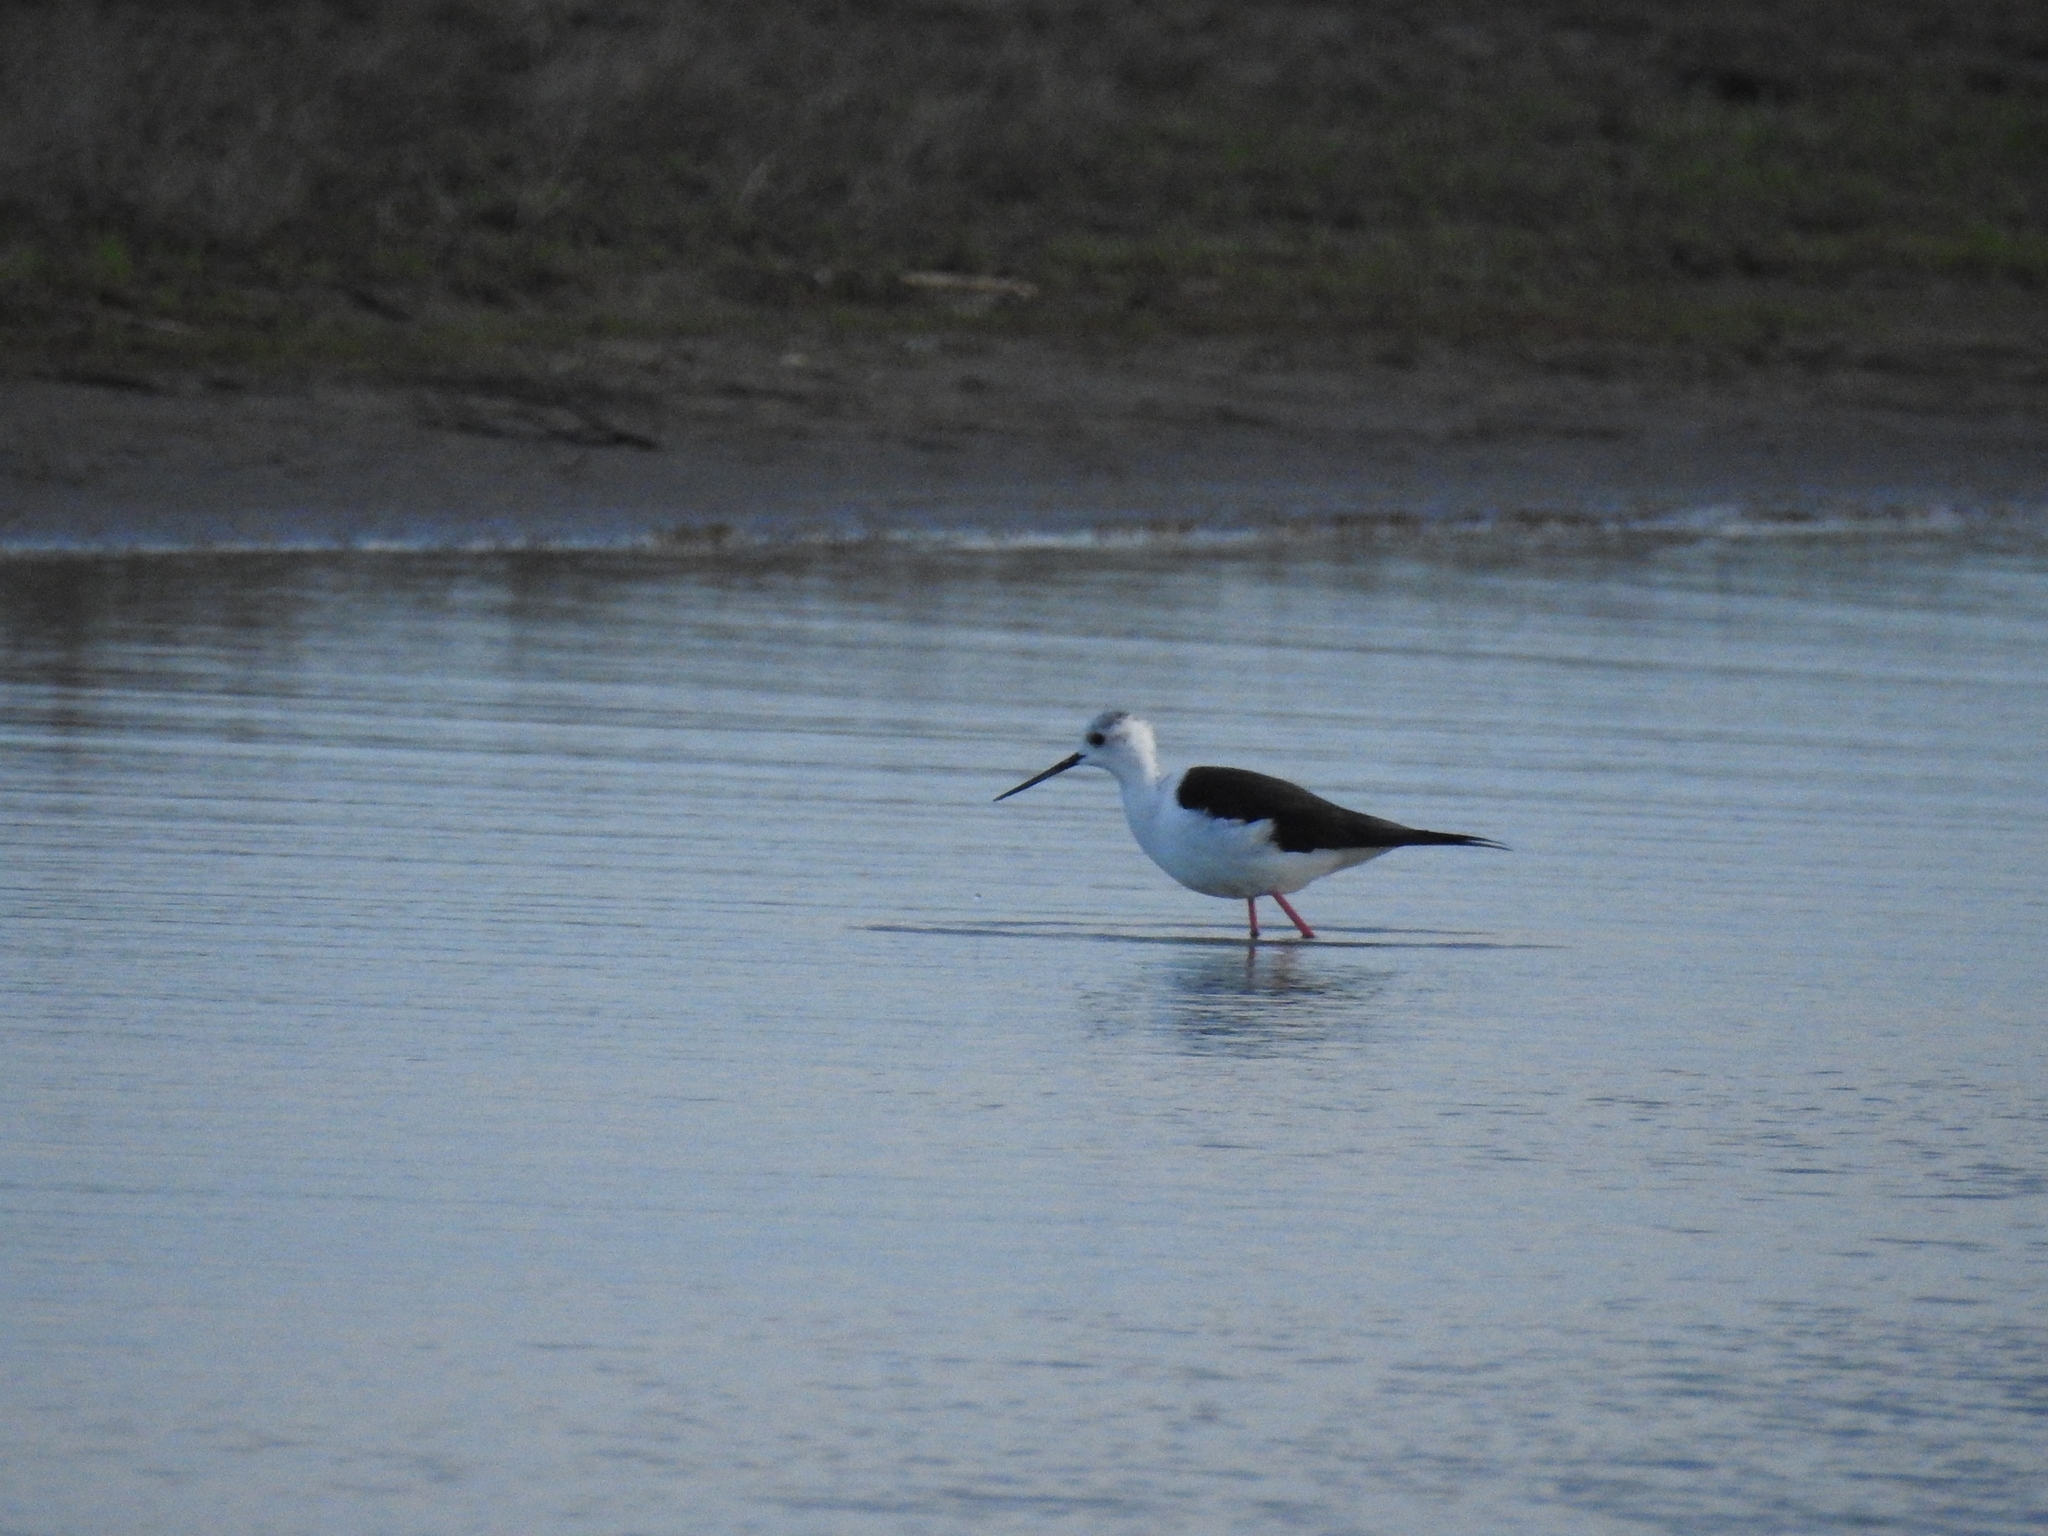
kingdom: Animalia
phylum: Chordata
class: Aves
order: Charadriiformes
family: Recurvirostridae
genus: Himantopus
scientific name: Himantopus himantopus
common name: Black-winged stilt
